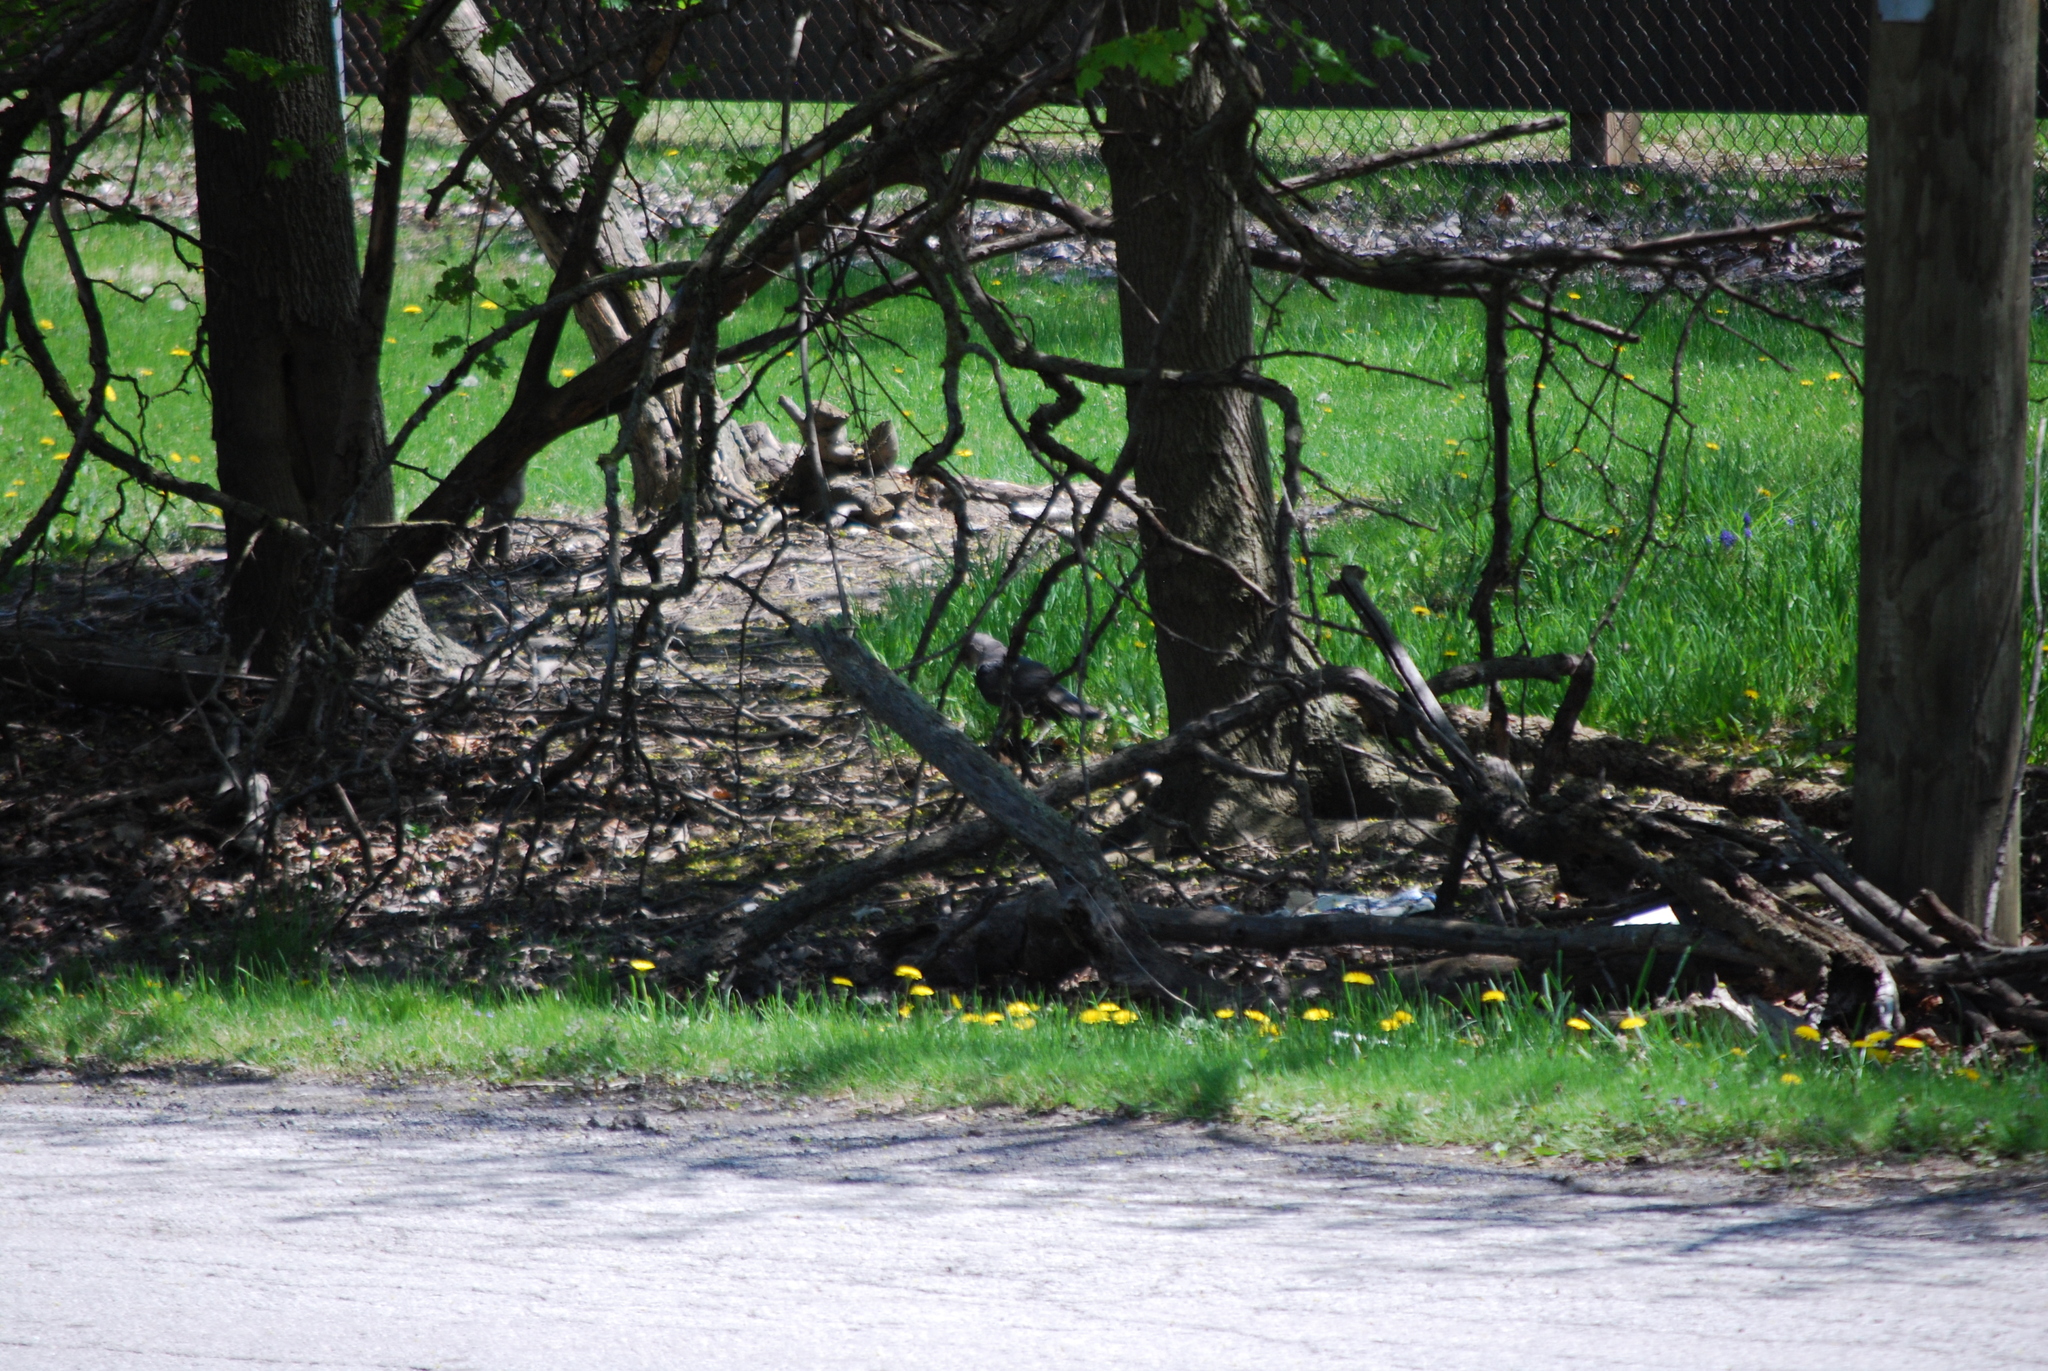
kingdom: Animalia
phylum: Chordata
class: Aves
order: Accipitriformes
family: Accipitridae
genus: Accipiter
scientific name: Accipiter cooperii
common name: Cooper's hawk
